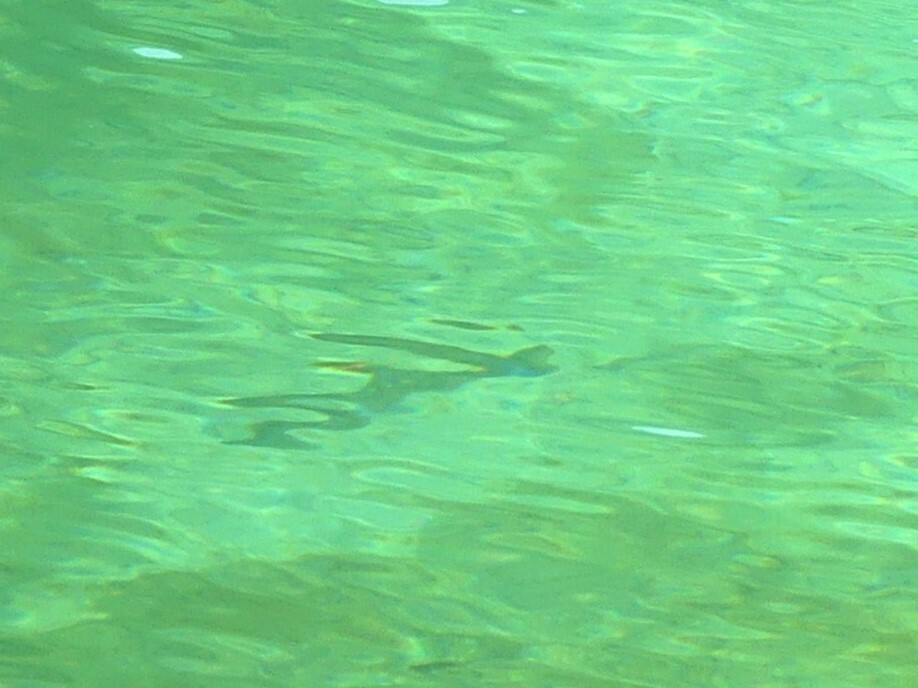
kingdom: Animalia
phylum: Chordata
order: Salmoniformes
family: Salmonidae
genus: Oncorhynchus
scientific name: Oncorhynchus mykiss
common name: Rainbow trout
